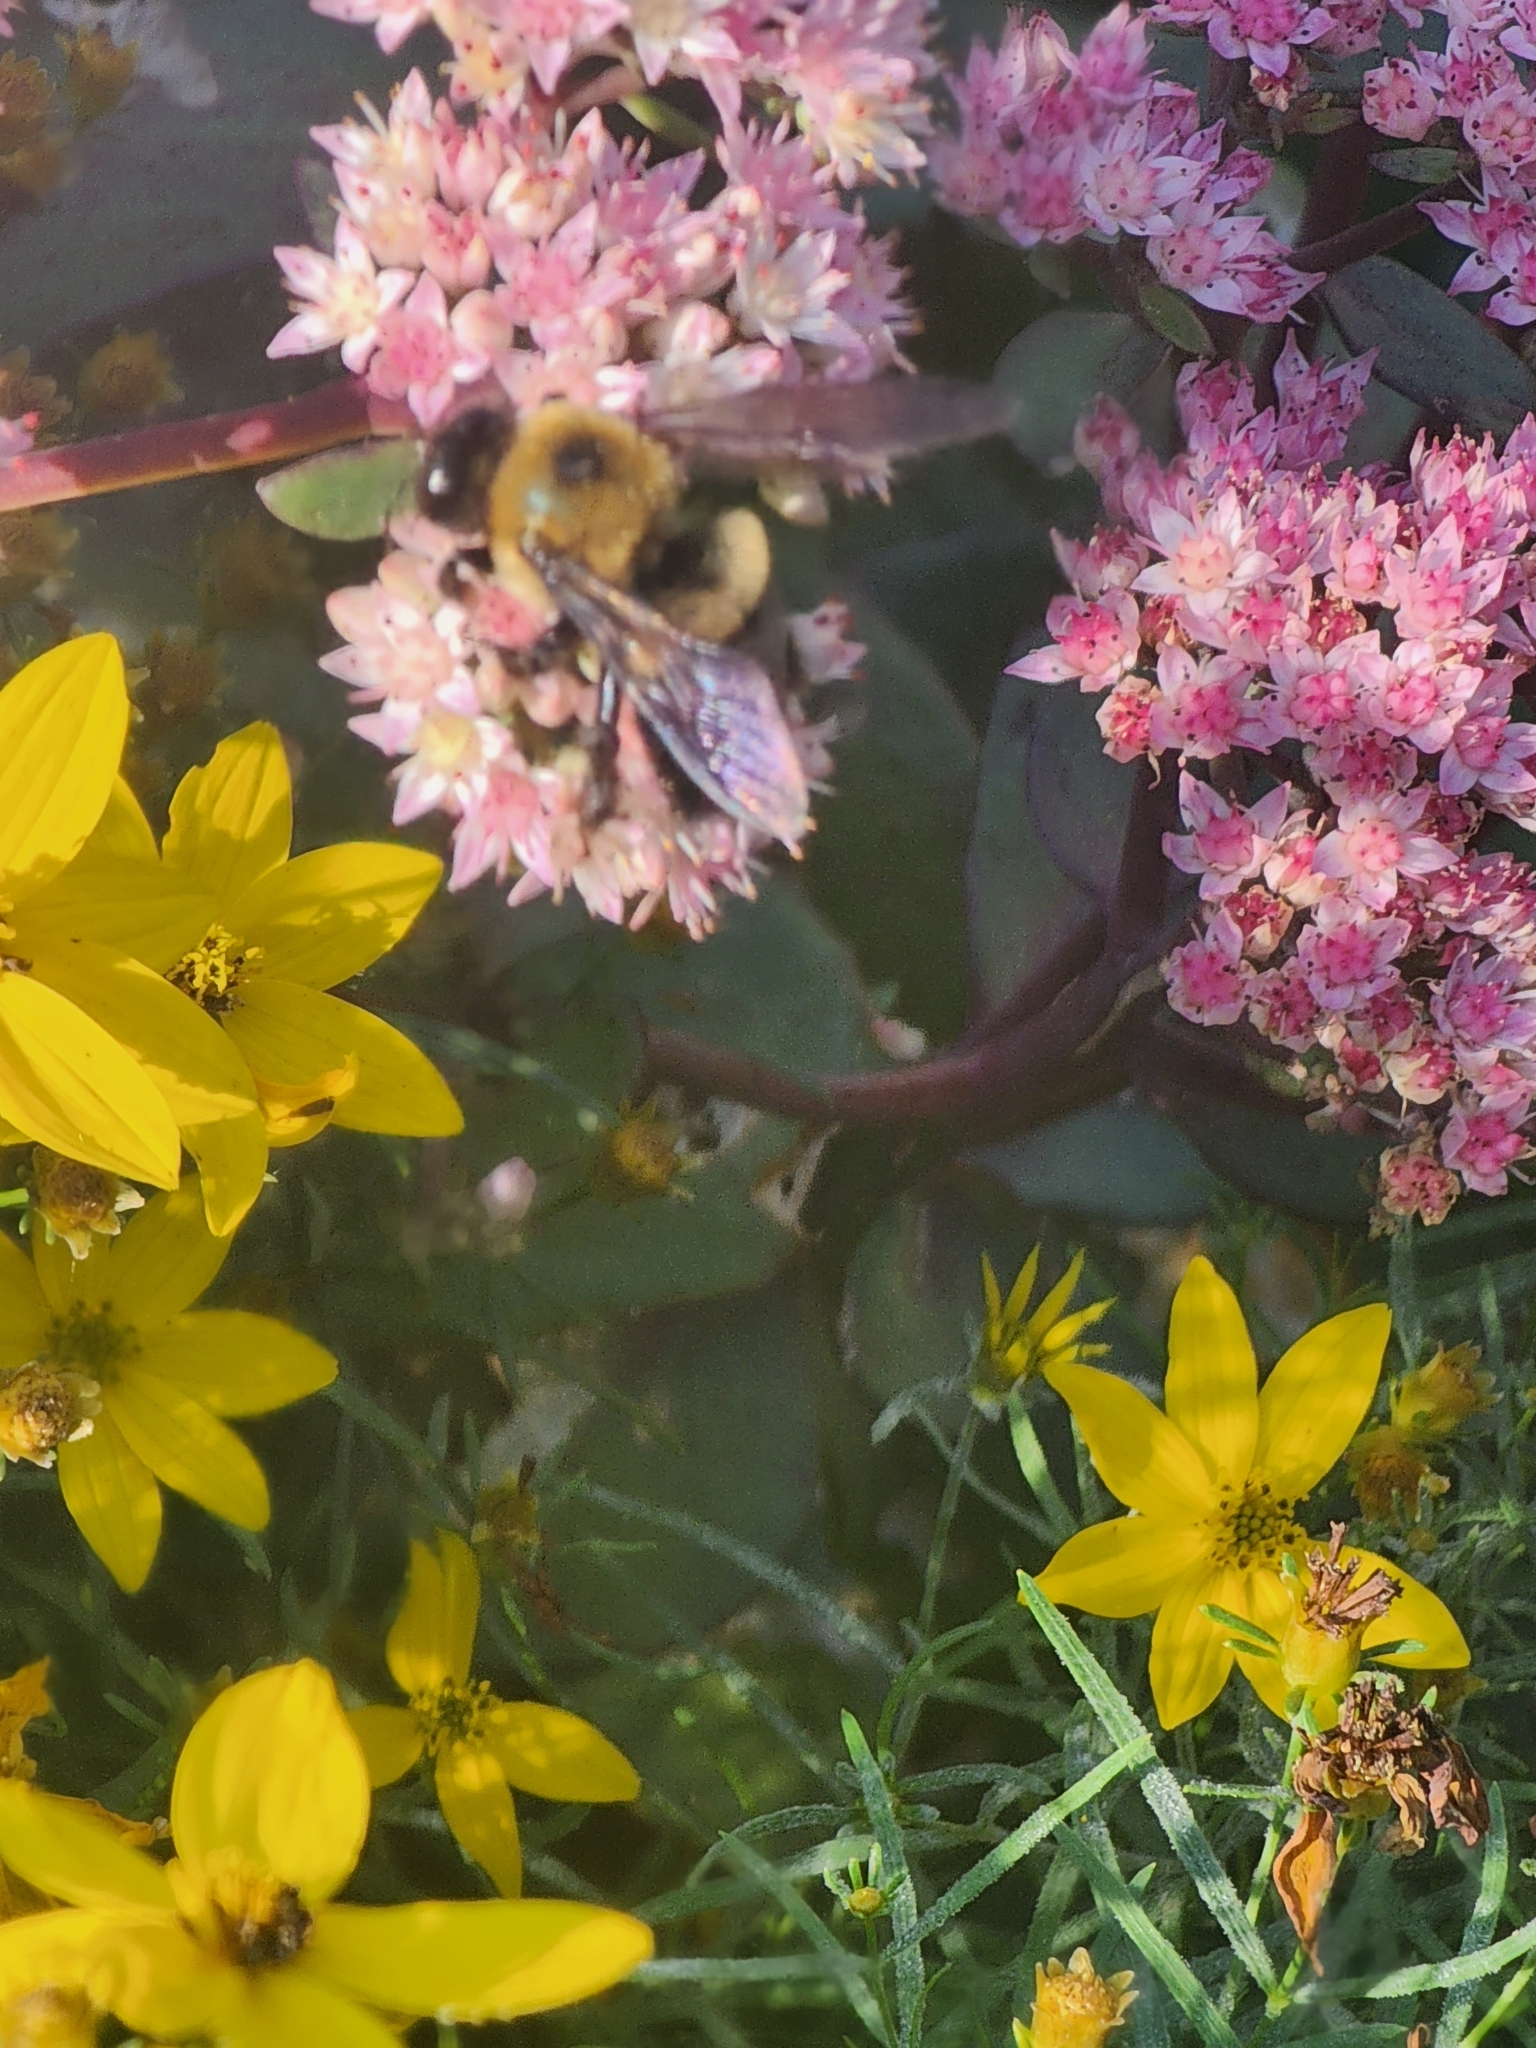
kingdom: Animalia
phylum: Arthropoda
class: Insecta
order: Hymenoptera
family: Apidae
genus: Xylocopa
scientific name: Xylocopa virginica
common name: Carpenter bee
